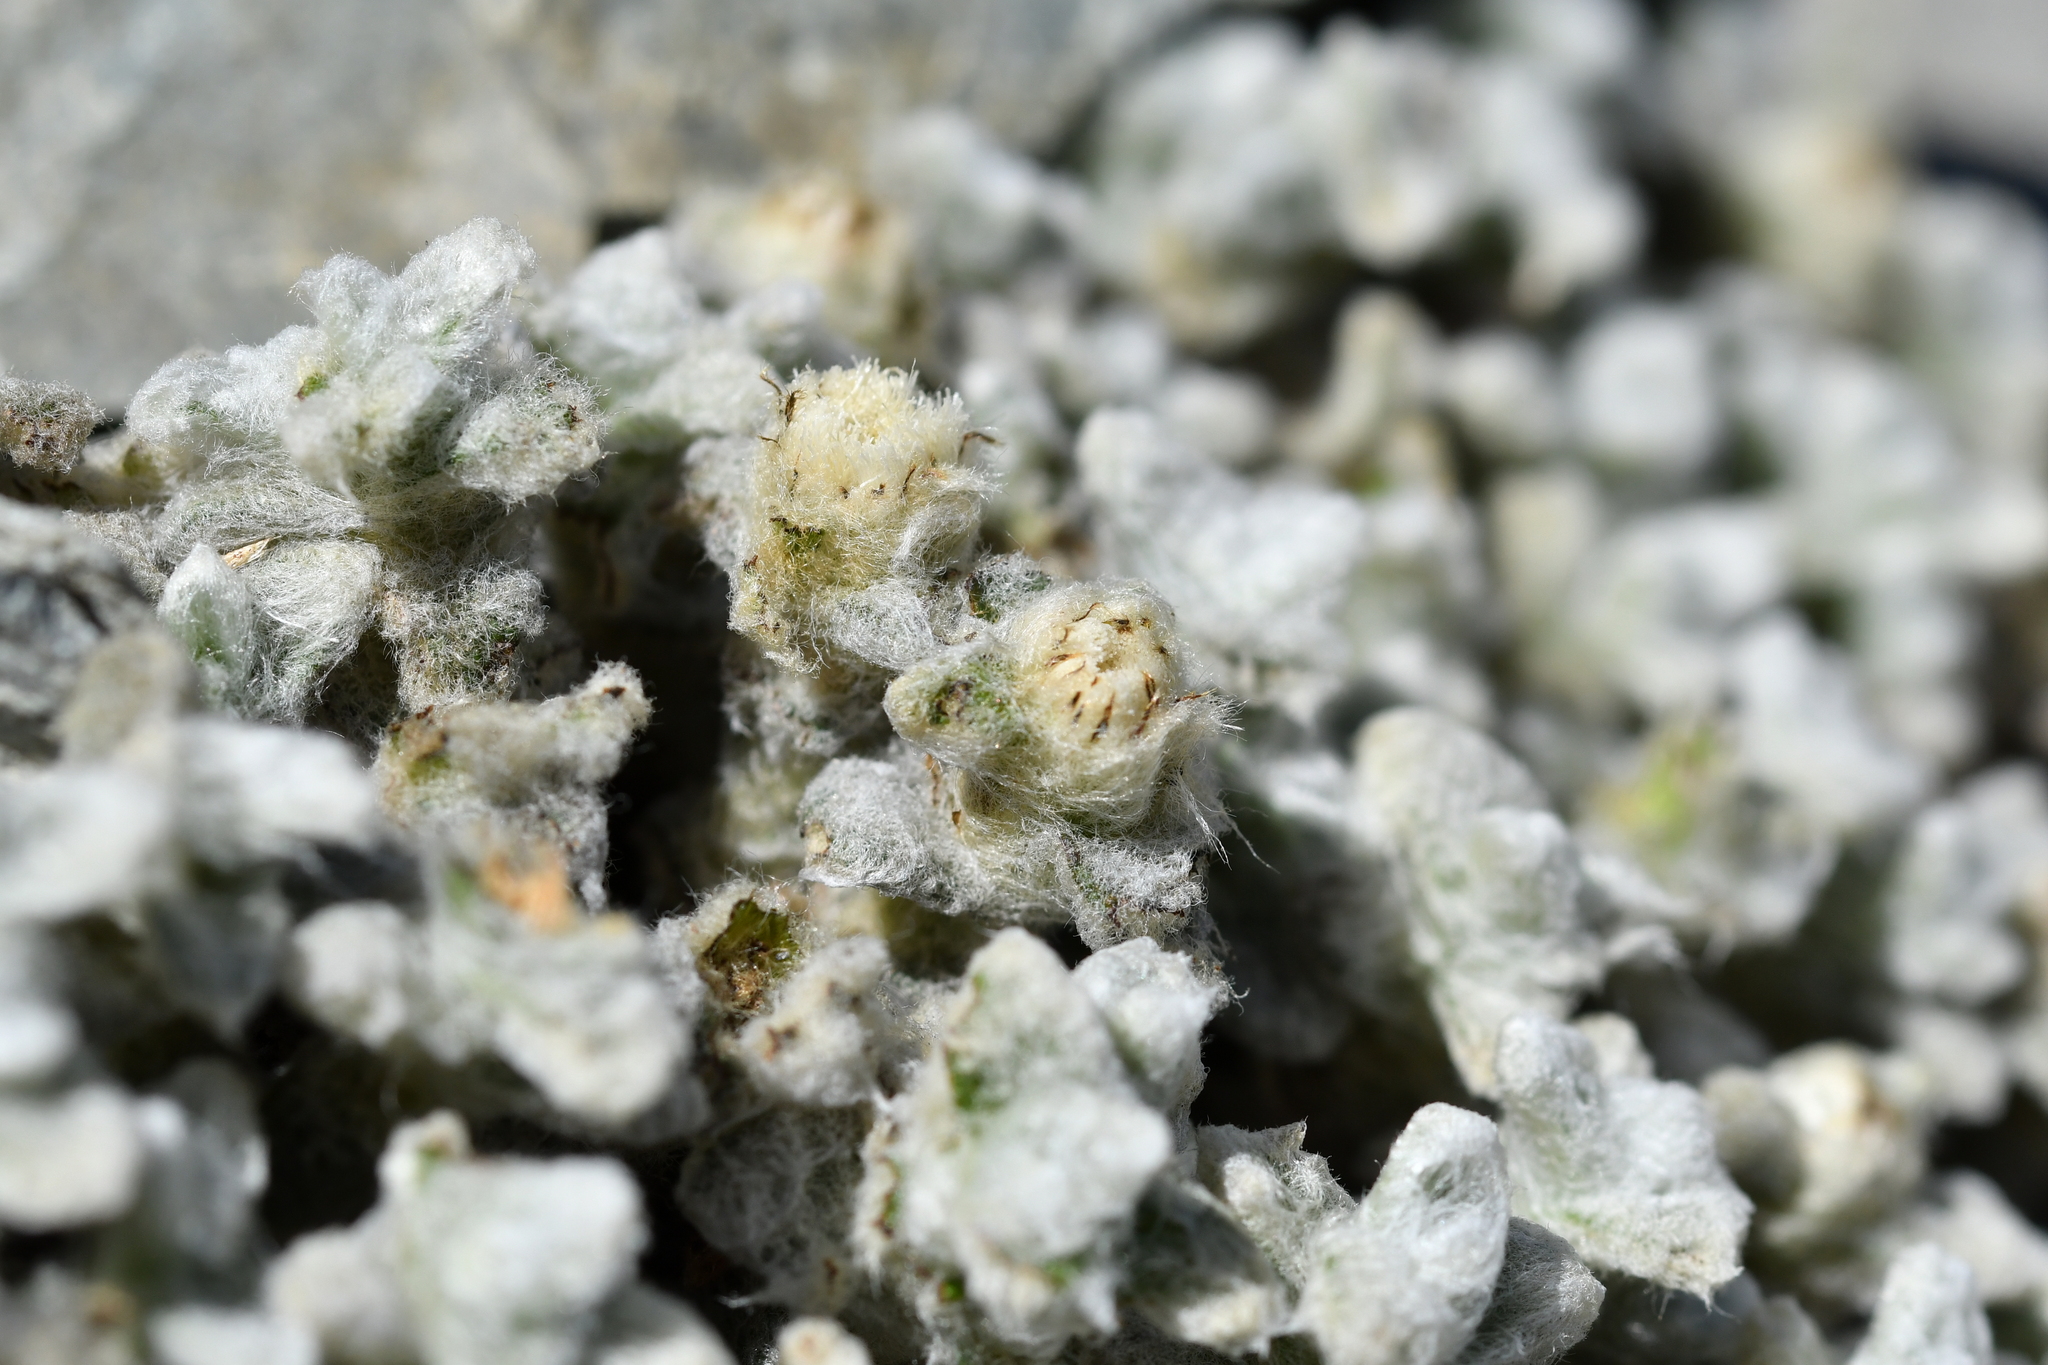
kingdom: Plantae
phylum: Tracheophyta
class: Magnoliopsida
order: Asterales
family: Asteraceae
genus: Haastia
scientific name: Haastia recurva
